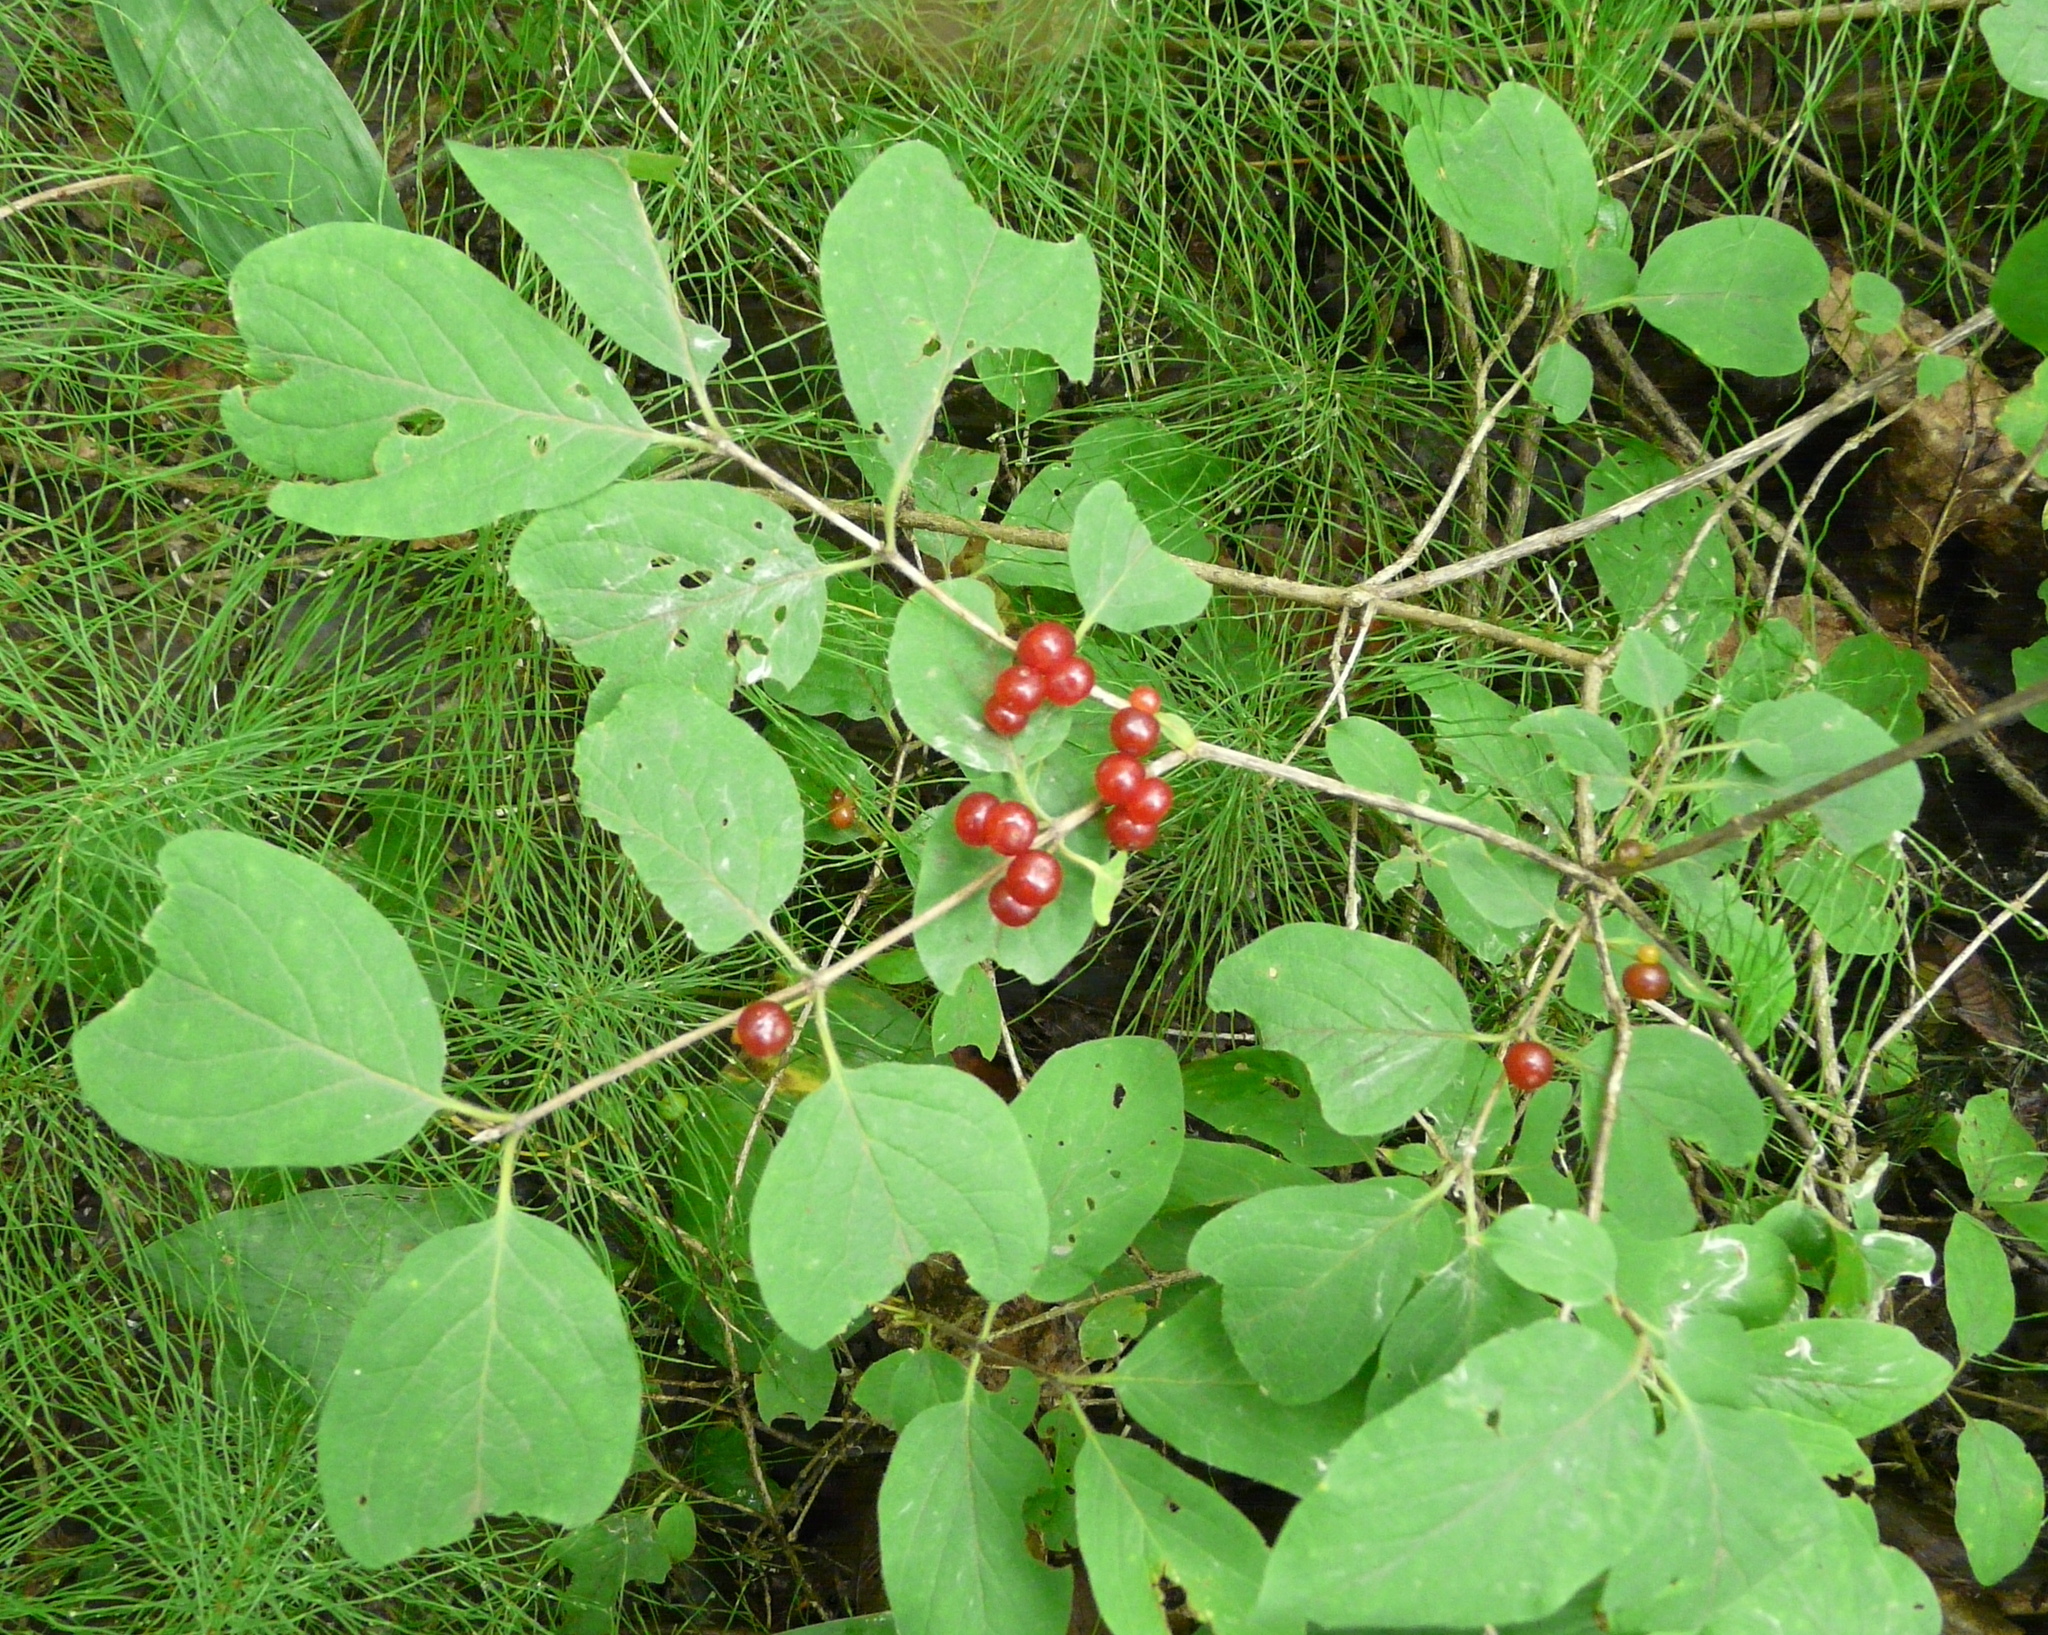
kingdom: Plantae
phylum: Tracheophyta
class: Magnoliopsida
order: Dipsacales
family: Caprifoliaceae
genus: Lonicera
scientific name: Lonicera xylosteum
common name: Fly honeysuckle
